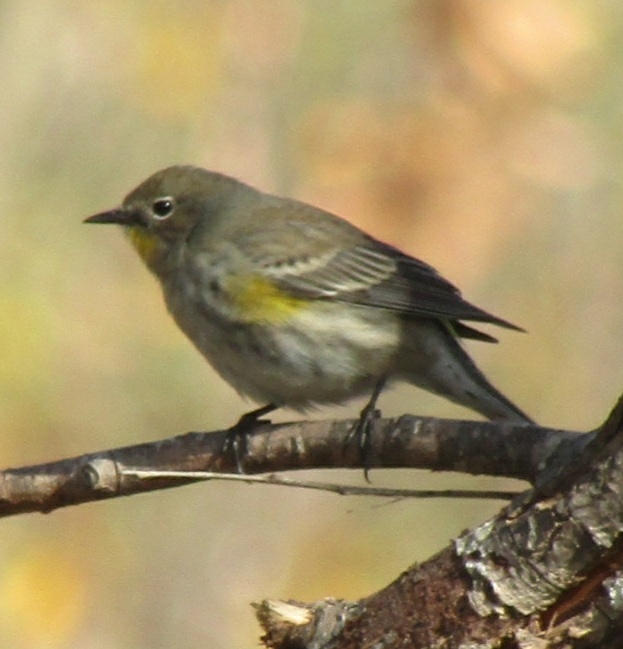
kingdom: Animalia
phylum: Chordata
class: Aves
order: Passeriformes
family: Parulidae
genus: Setophaga
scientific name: Setophaga coronata
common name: Myrtle warbler
